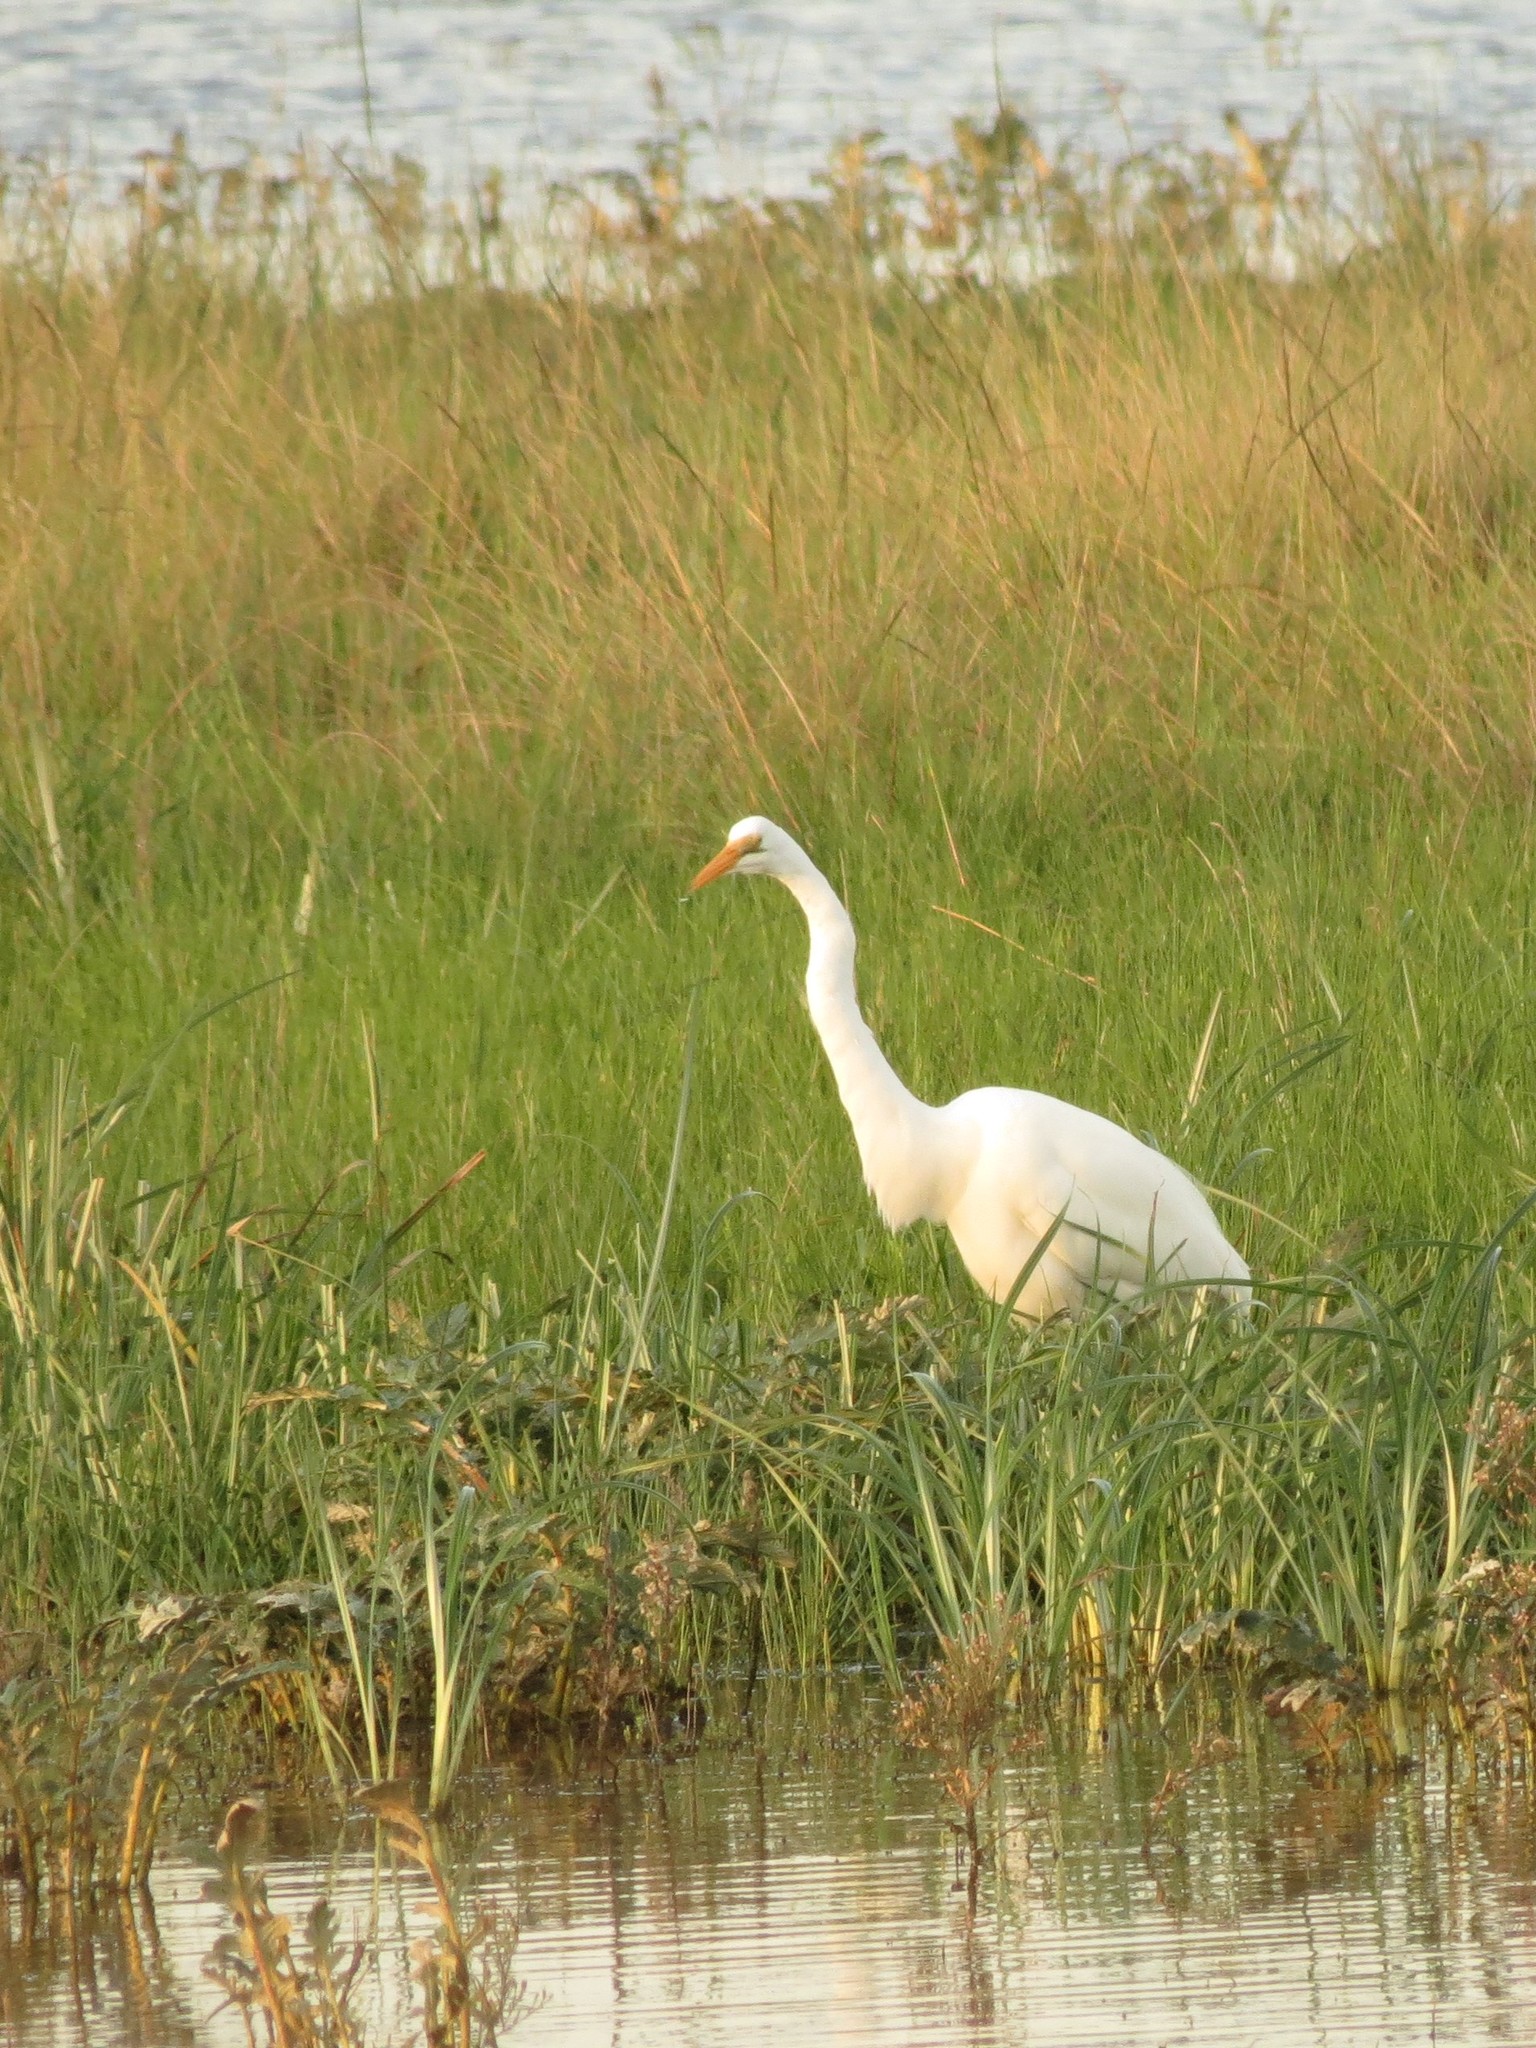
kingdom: Animalia
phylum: Chordata
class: Aves
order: Pelecaniformes
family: Ardeidae
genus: Ardea
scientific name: Ardea alba
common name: Great egret
